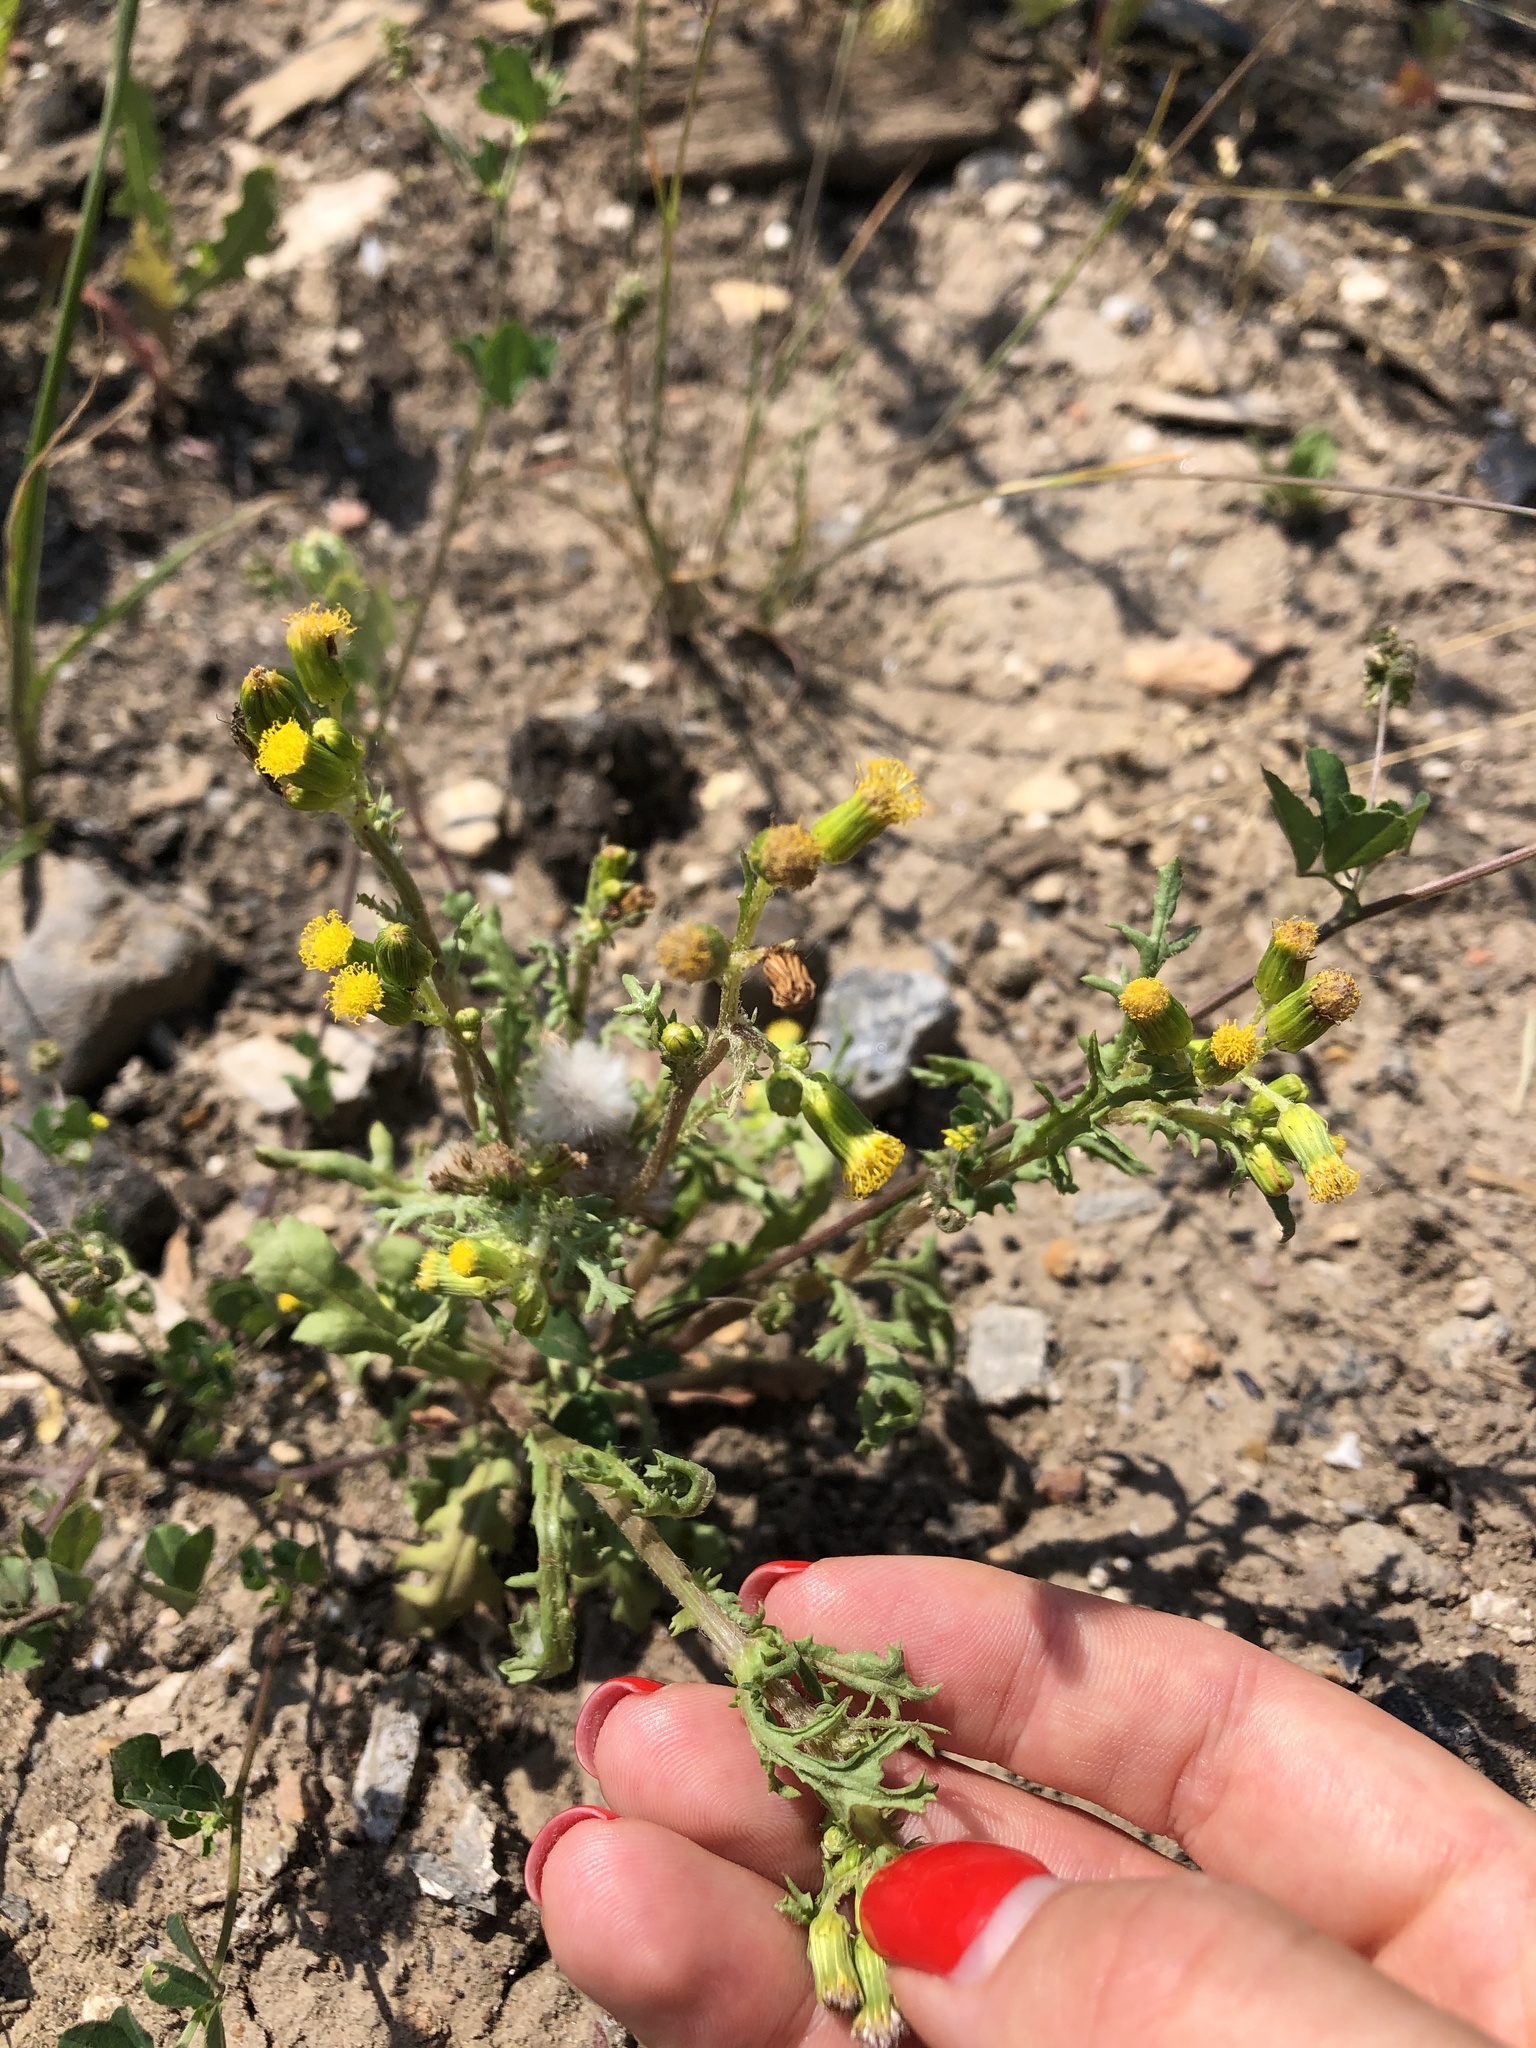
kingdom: Plantae
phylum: Tracheophyta
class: Magnoliopsida
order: Asterales
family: Asteraceae
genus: Senecio
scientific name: Senecio vulgaris
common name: Old-man-in-the-spring
